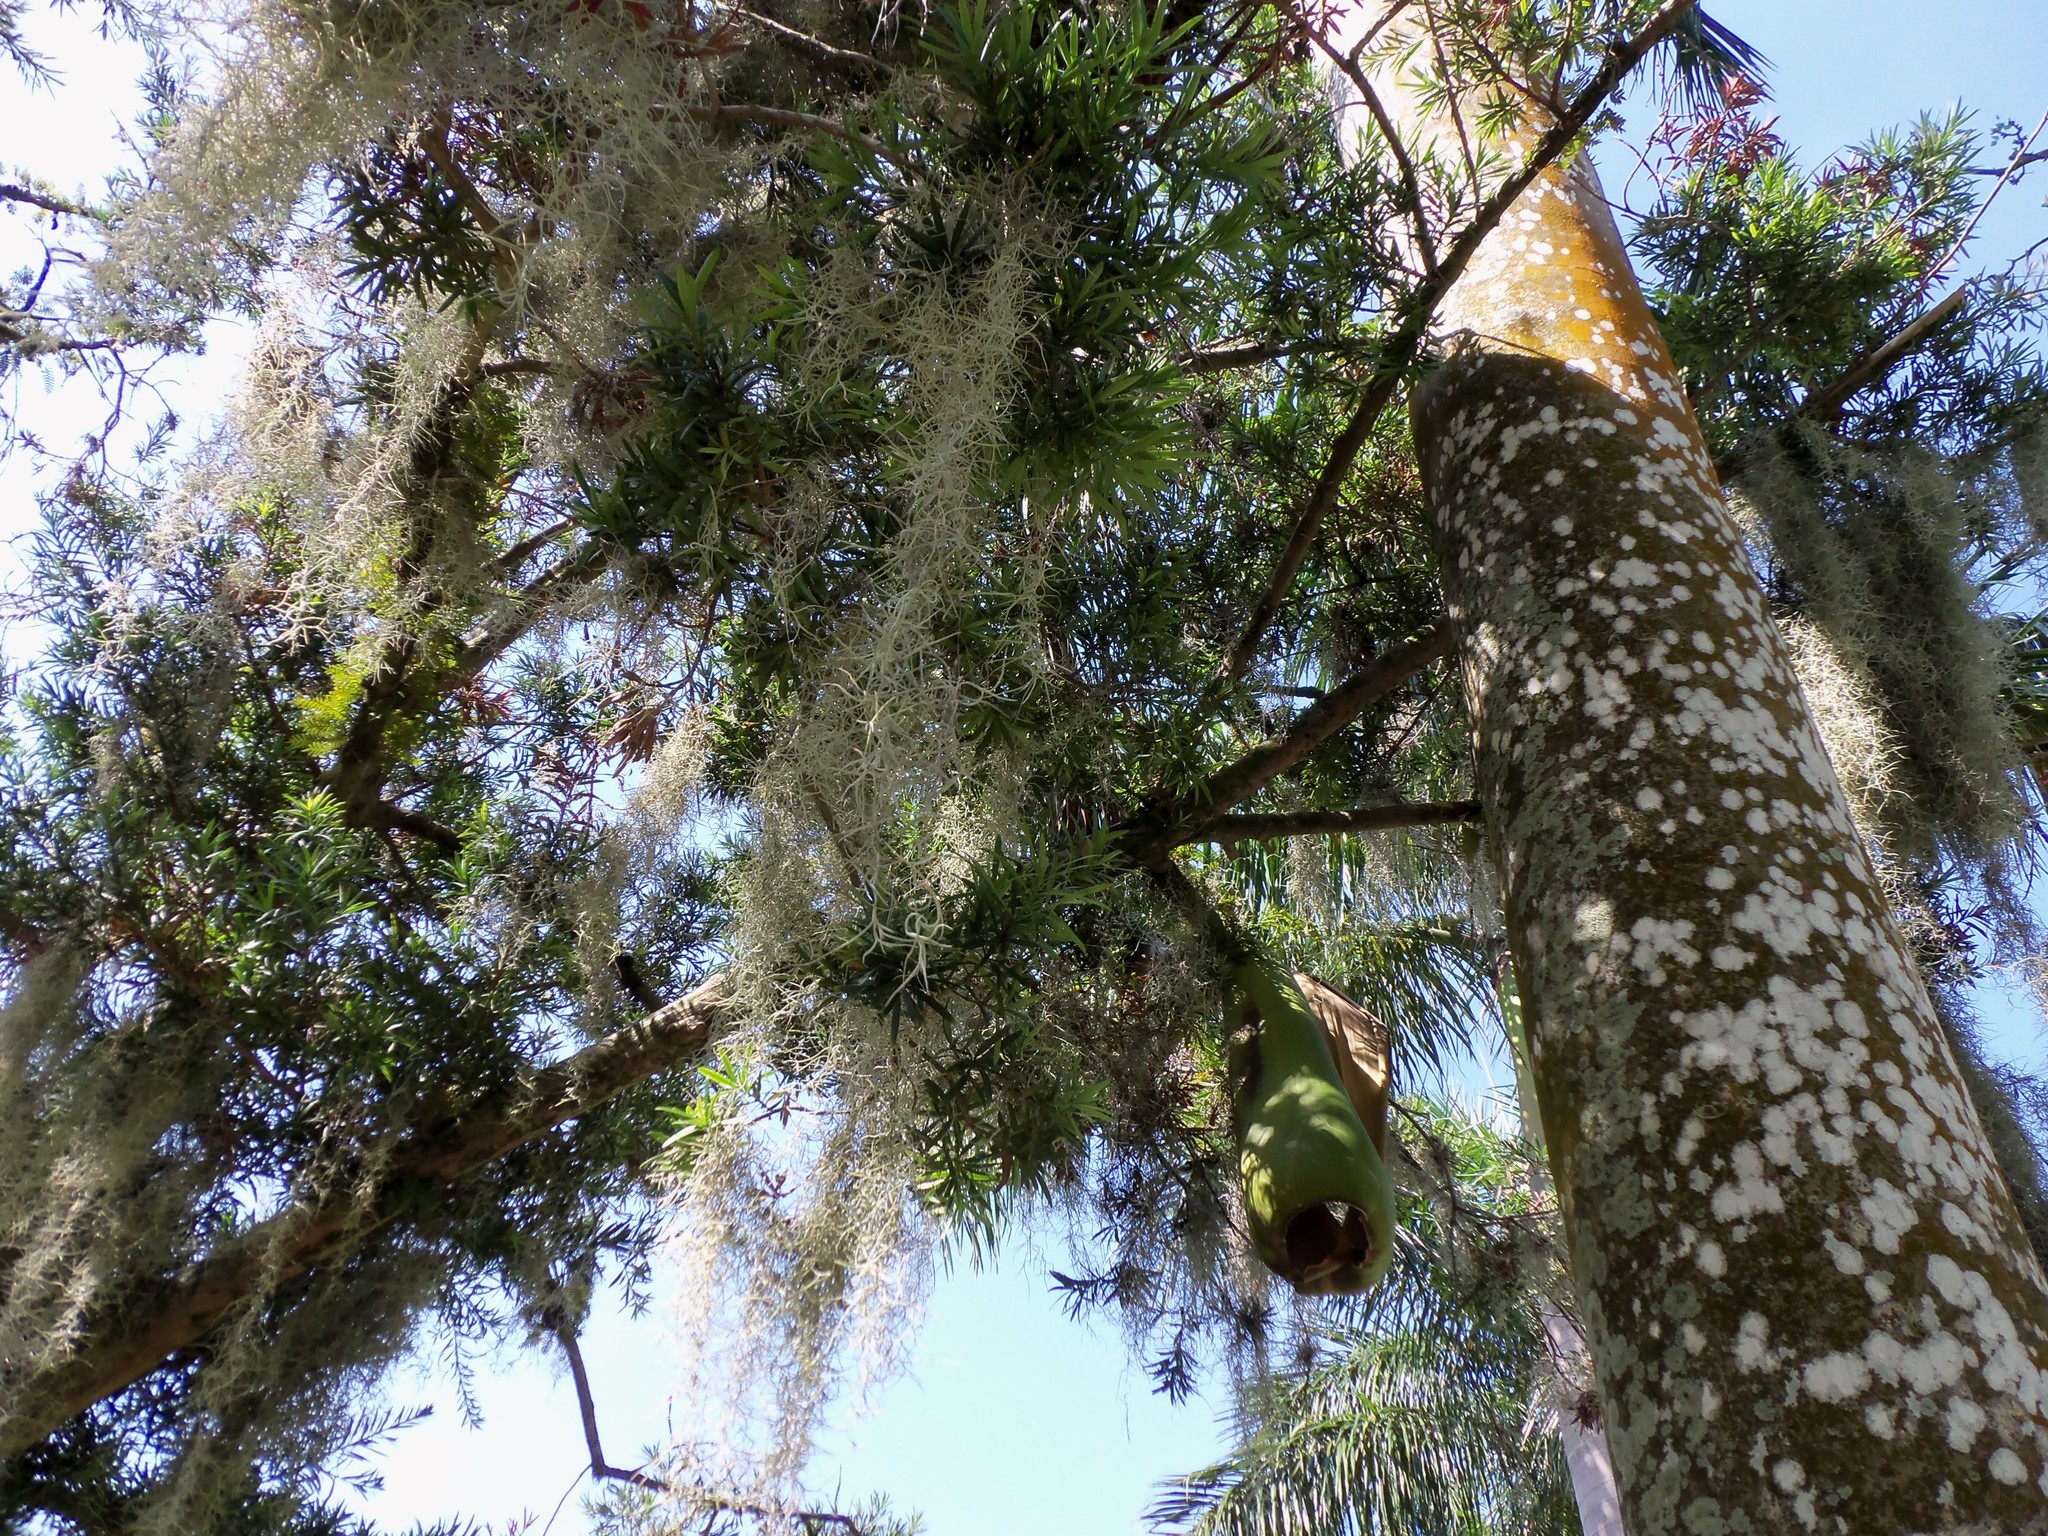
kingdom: Plantae
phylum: Tracheophyta
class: Liliopsida
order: Poales
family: Bromeliaceae
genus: Tillandsia
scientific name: Tillandsia usneoides
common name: Spanish moss
